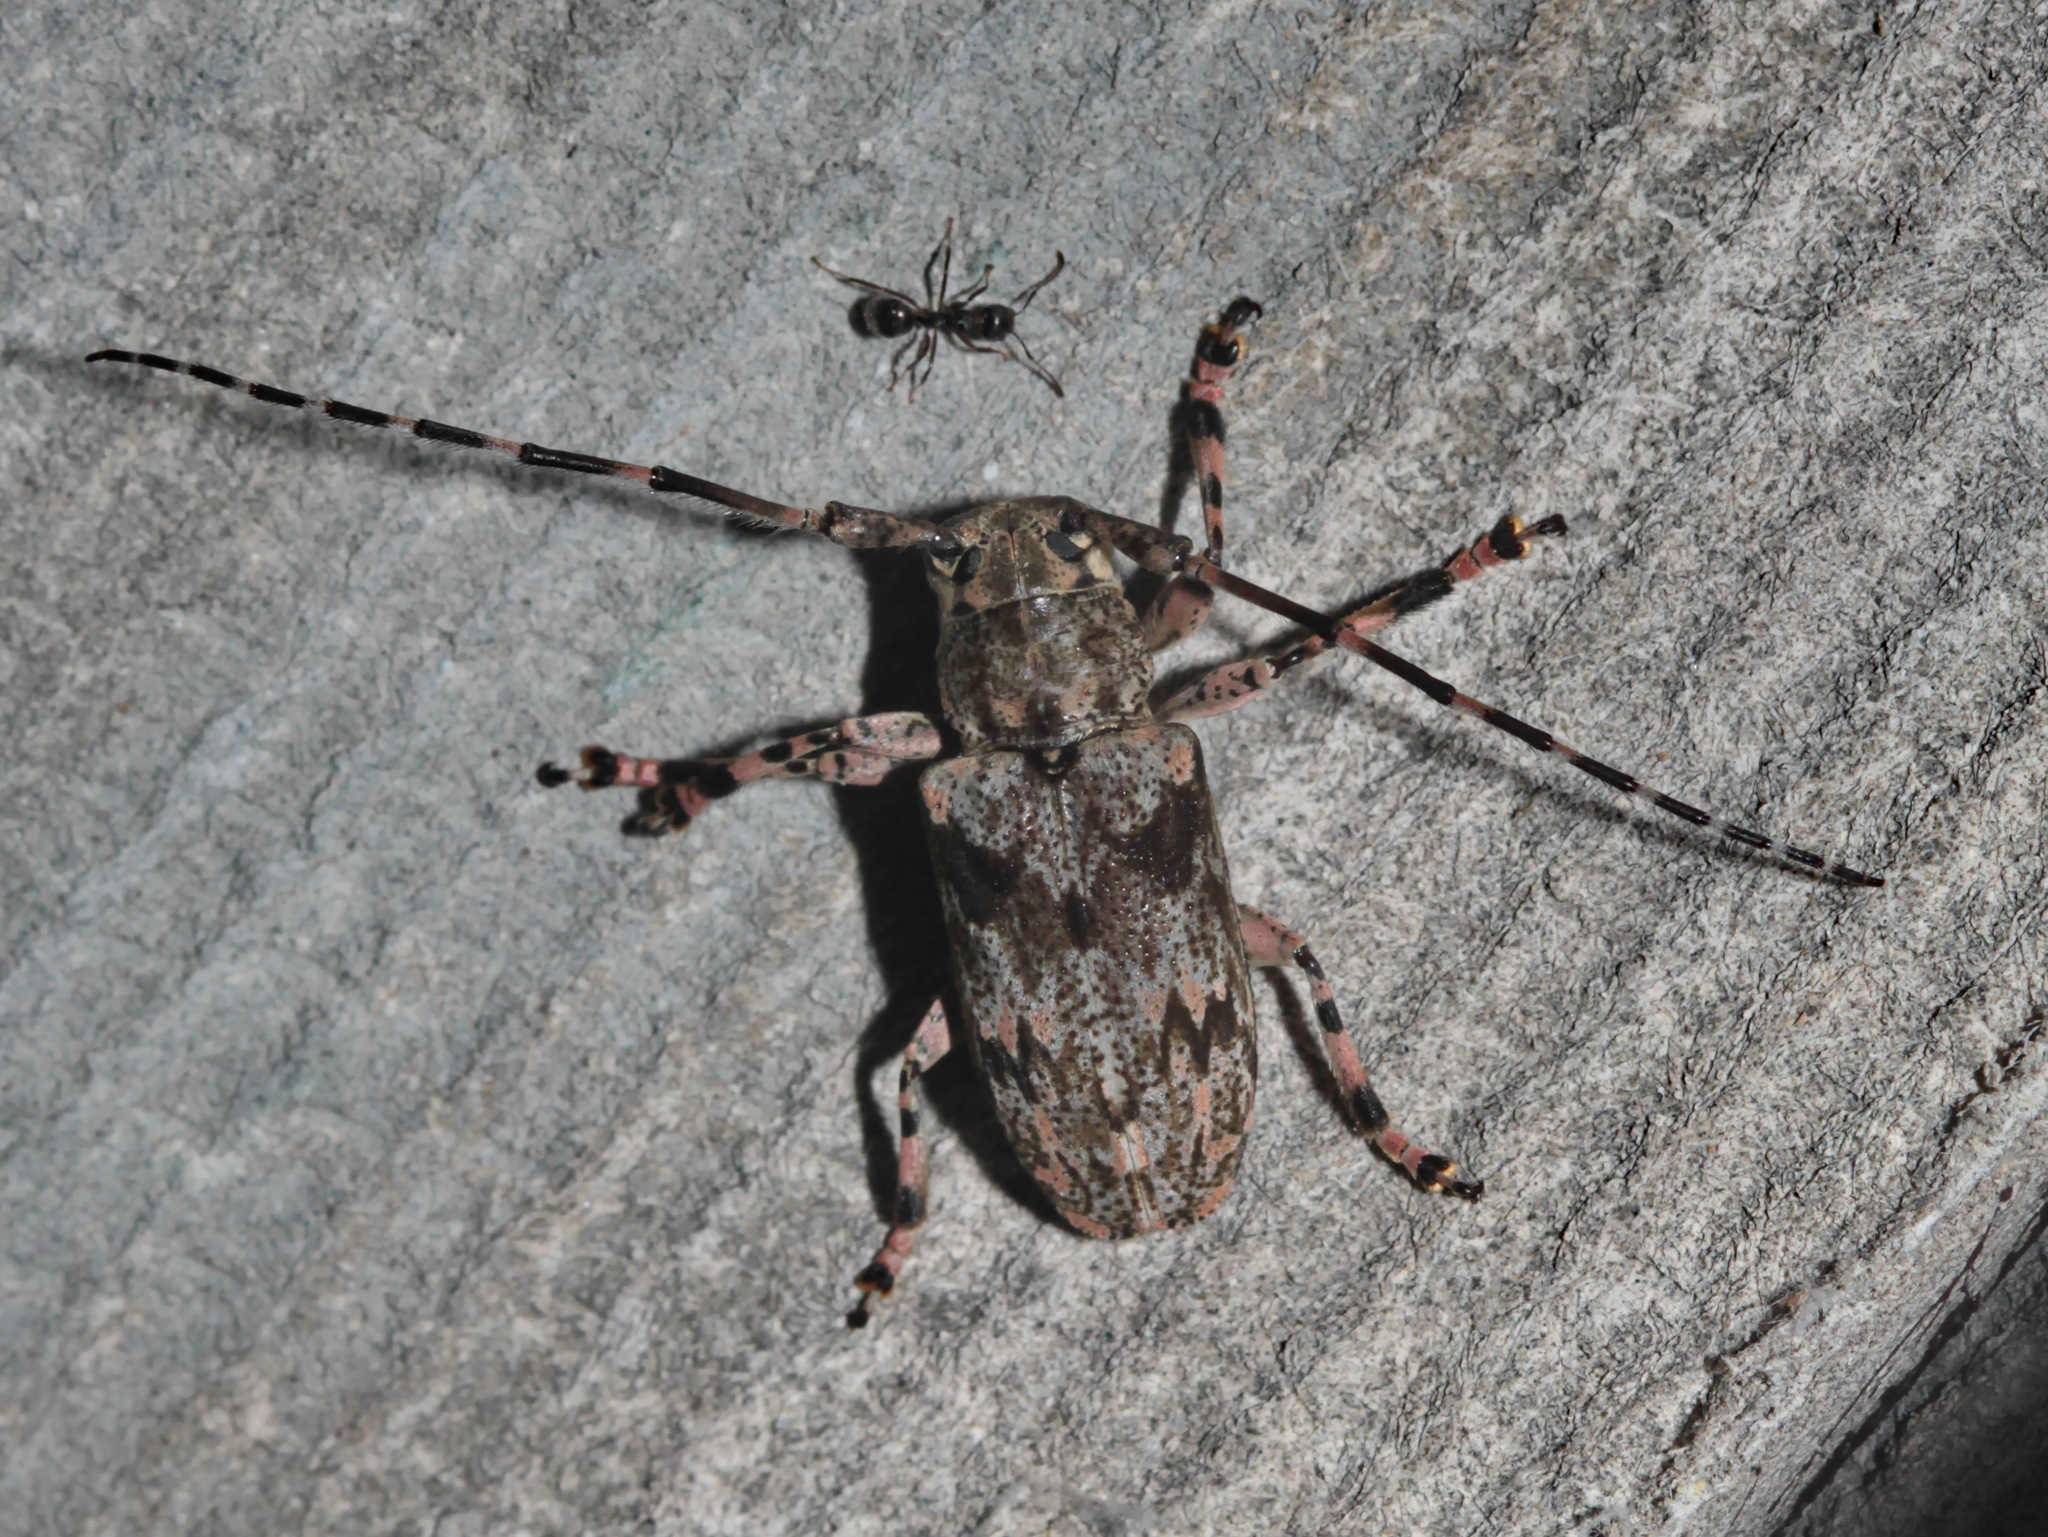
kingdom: Animalia
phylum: Arthropoda
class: Insecta
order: Coleoptera
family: Cerambycidae
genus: Mesosa
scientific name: Mesosa obscura
